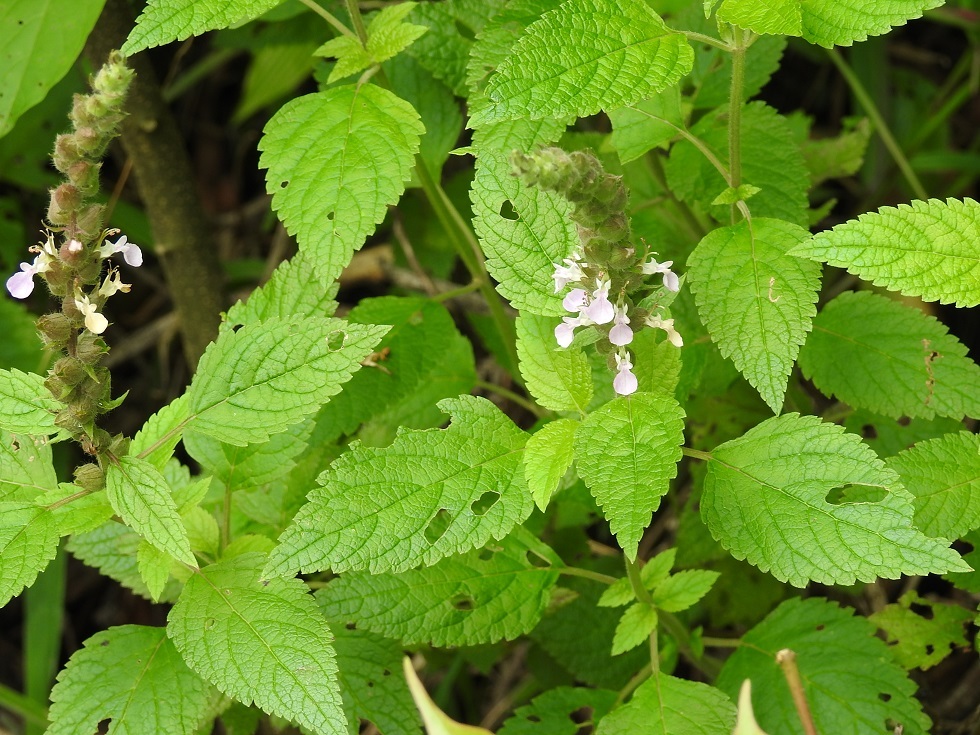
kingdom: Plantae
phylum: Tracheophyta
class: Magnoliopsida
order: Lamiales
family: Lamiaceae
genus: Teucrium
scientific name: Teucrium vesicarium
